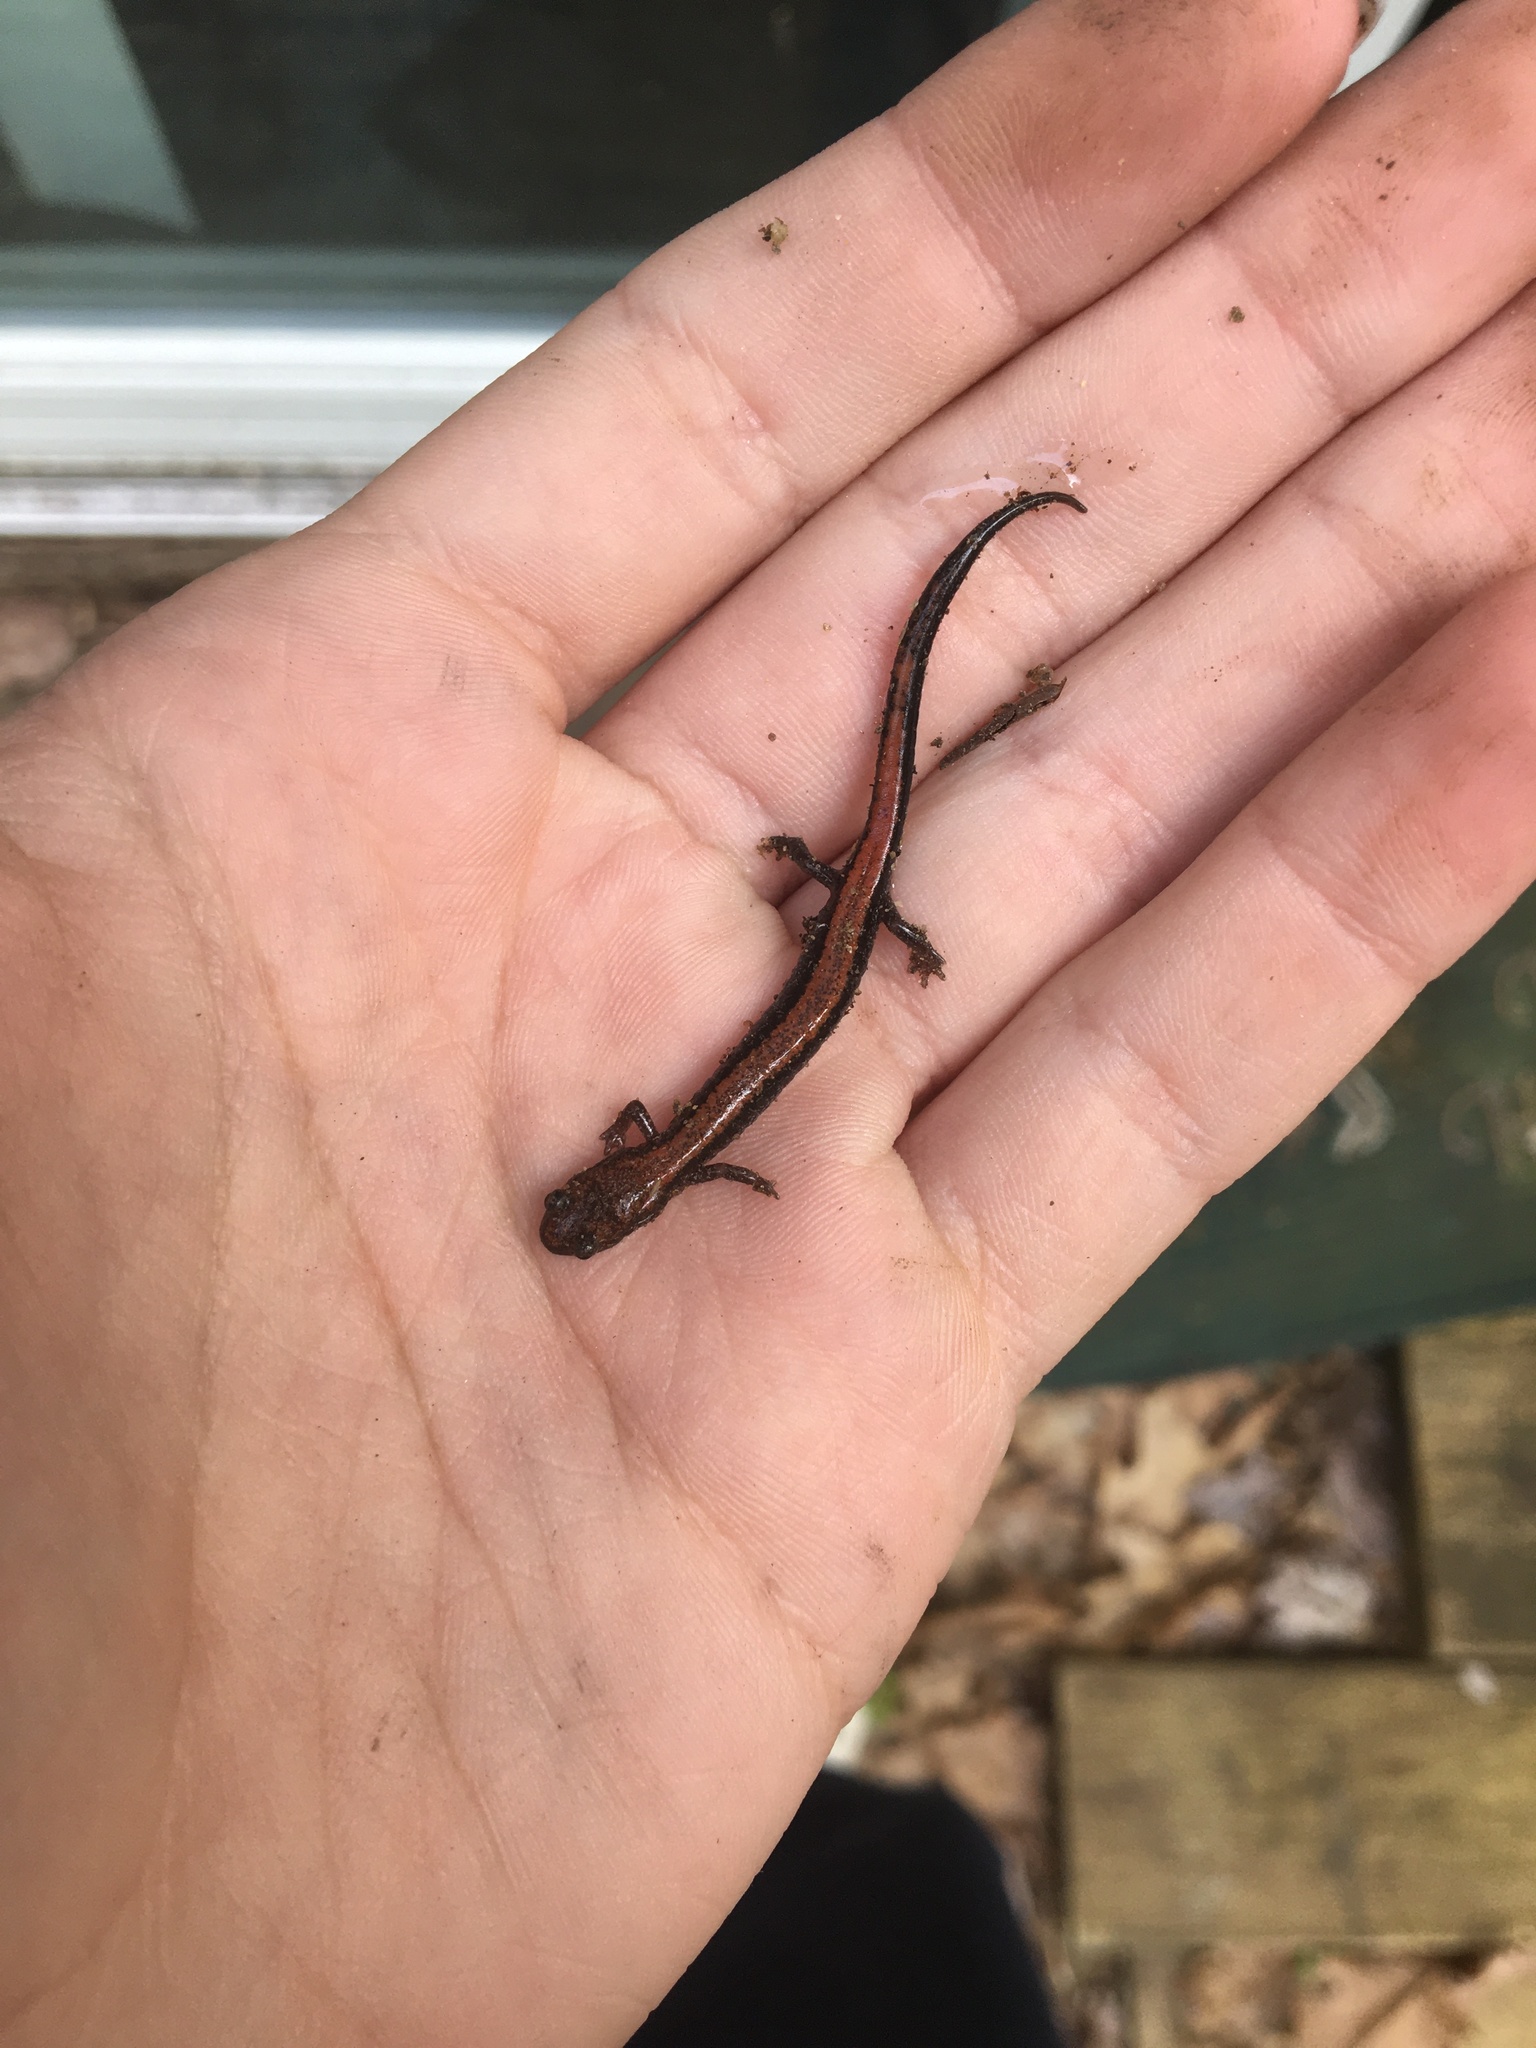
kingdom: Animalia
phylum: Chordata
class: Amphibia
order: Caudata
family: Plethodontidae
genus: Plethodon
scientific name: Plethodon cinereus
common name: Redback salamander
